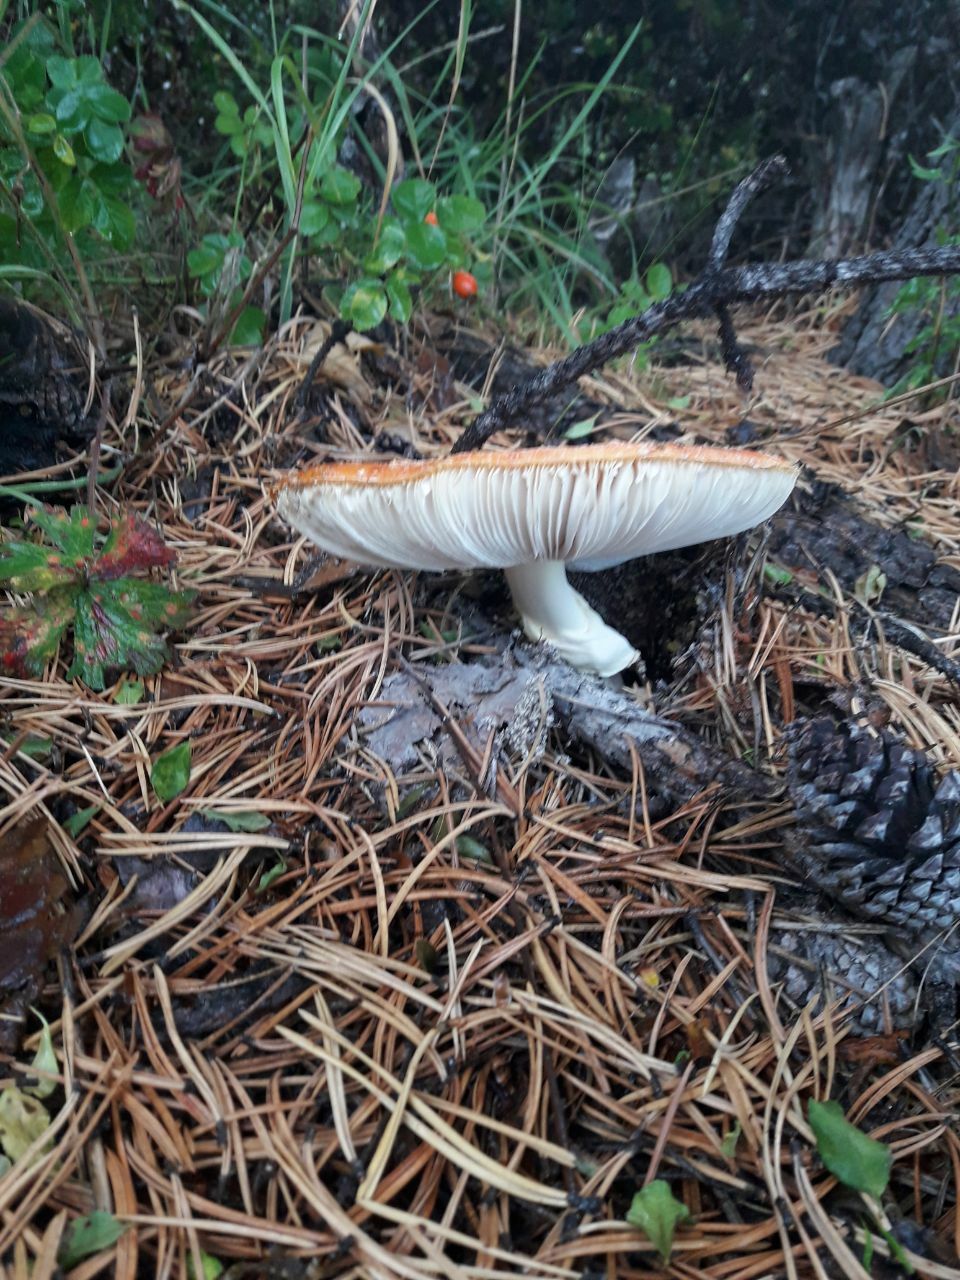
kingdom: Fungi
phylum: Basidiomycota
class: Agaricomycetes
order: Agaricales
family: Amanitaceae
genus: Amanita
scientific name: Amanita muscaria
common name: Fly agaric
